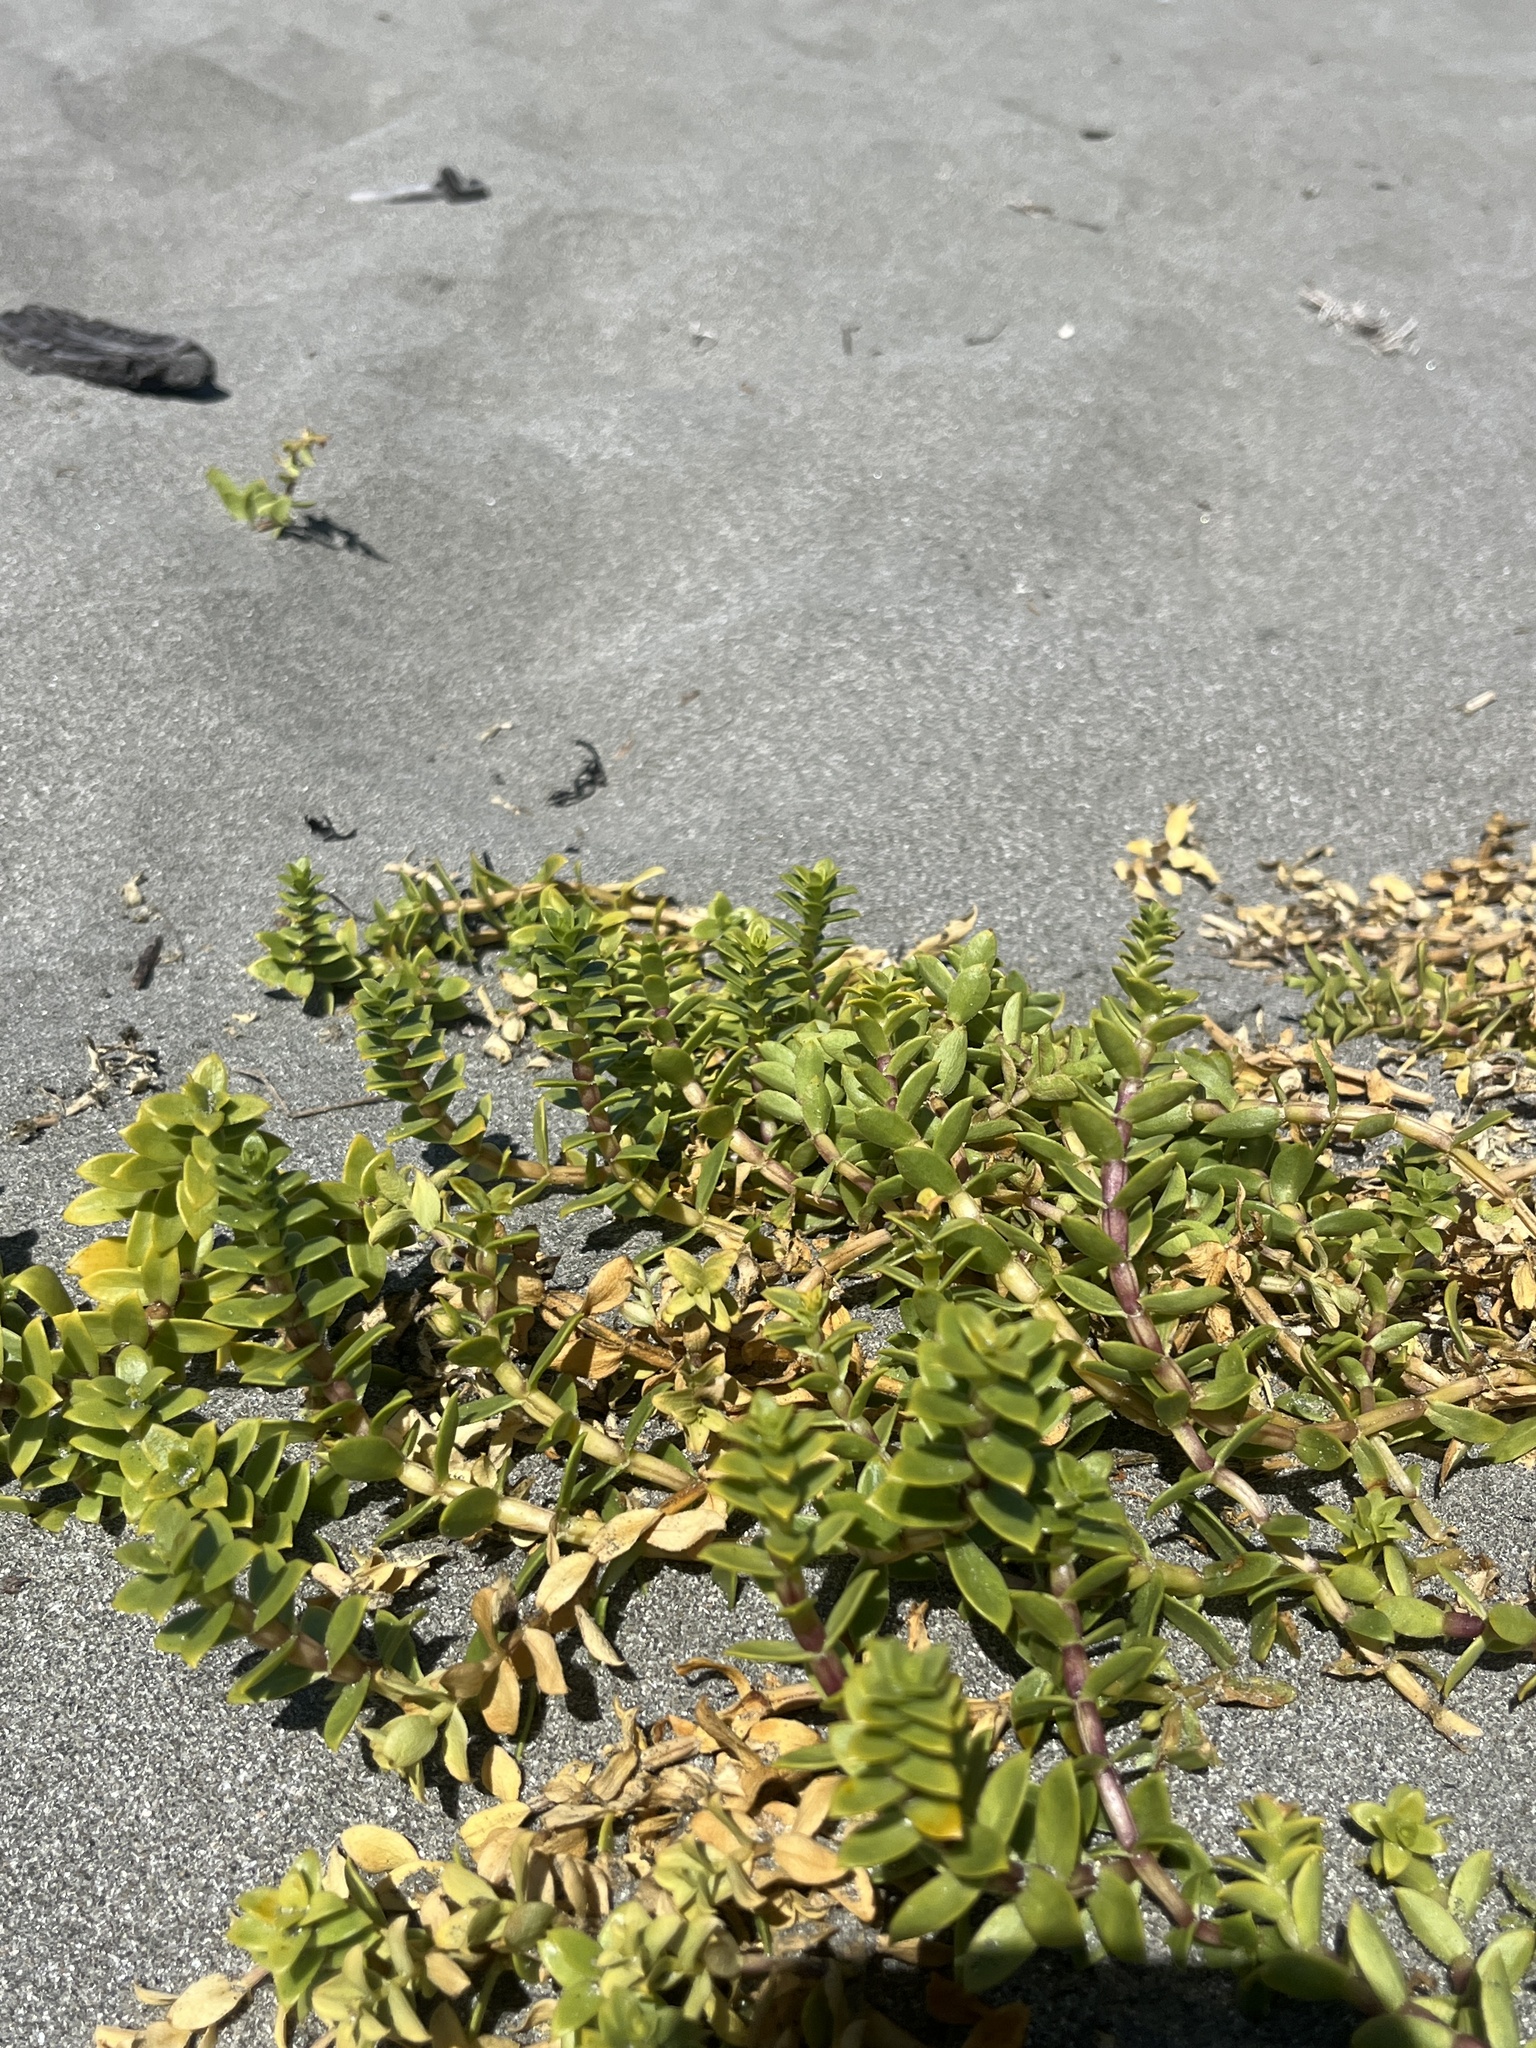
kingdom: Plantae
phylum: Tracheophyta
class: Magnoliopsida
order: Caryophyllales
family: Caryophyllaceae
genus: Honckenya
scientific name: Honckenya peploides
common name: Sea sandwort
